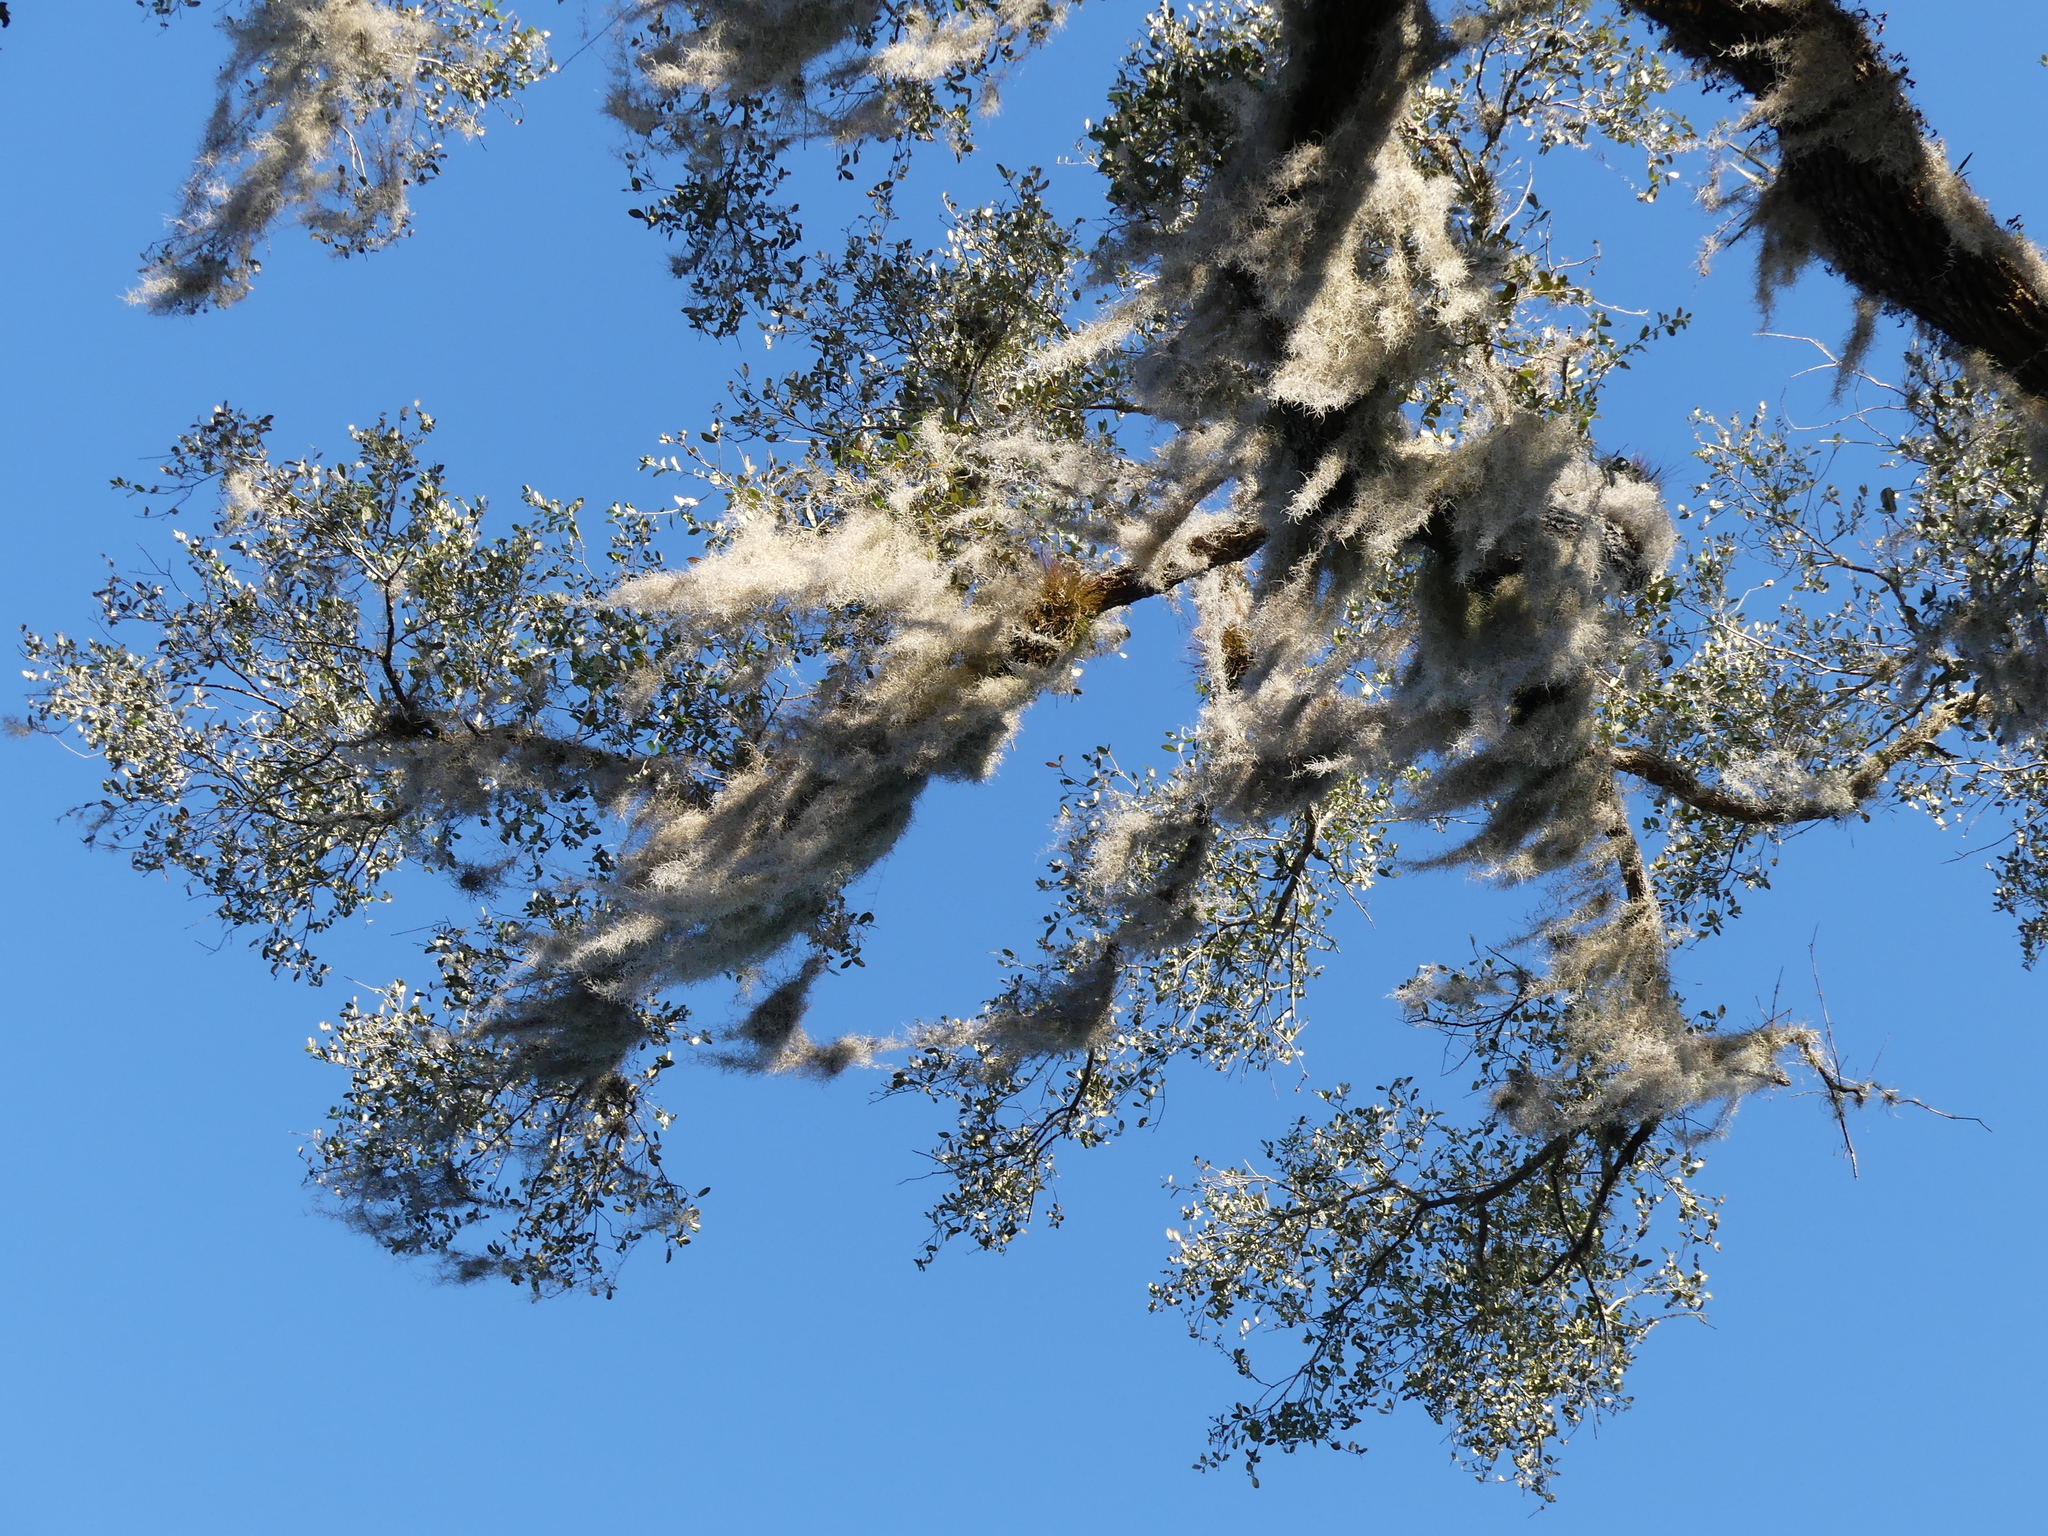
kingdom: Plantae
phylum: Tracheophyta
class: Liliopsida
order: Poales
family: Bromeliaceae
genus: Tillandsia
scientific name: Tillandsia usneoides
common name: Spanish moss
